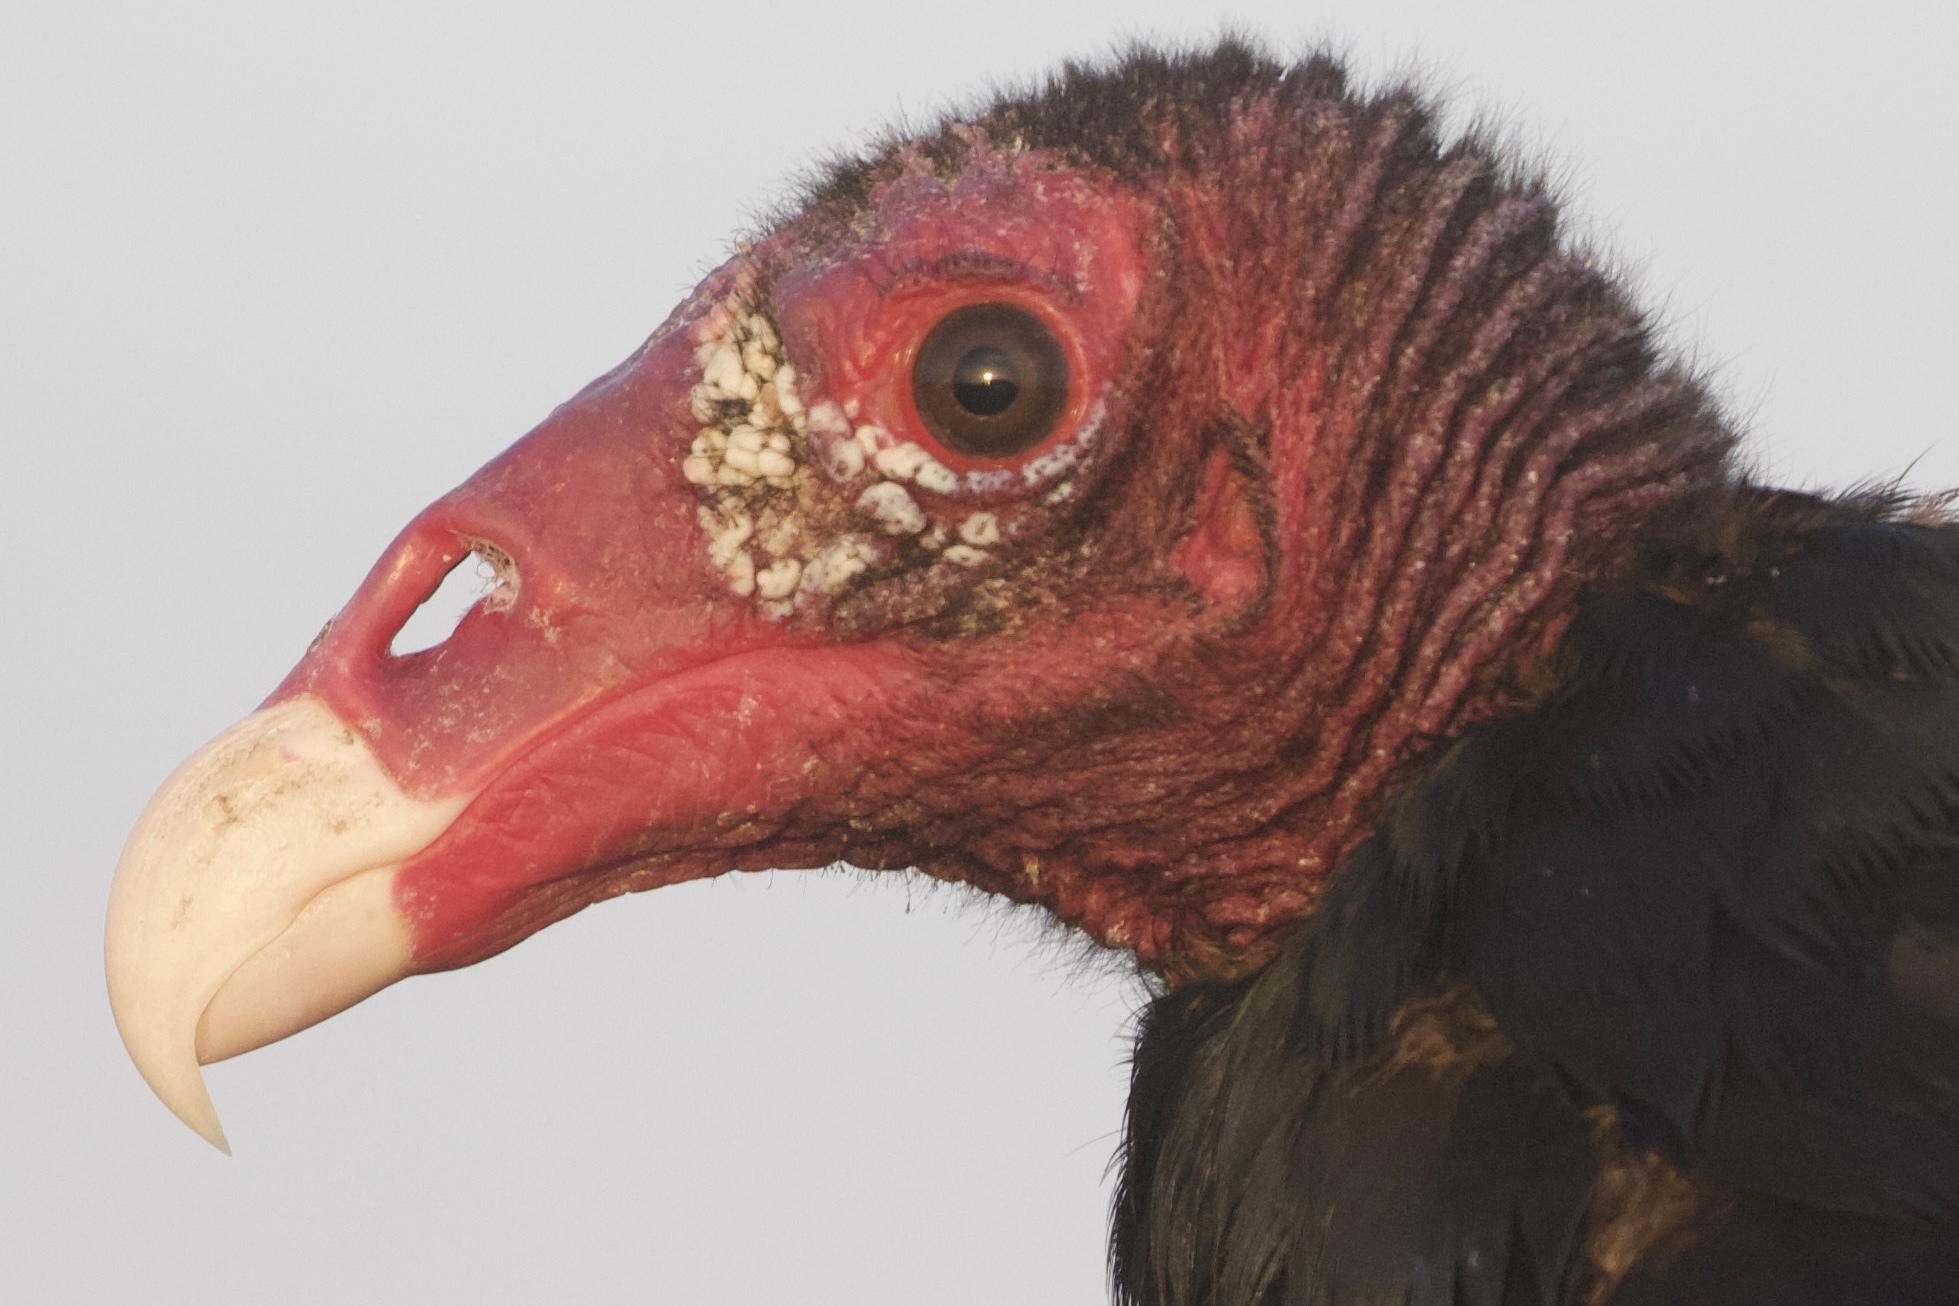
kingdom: Animalia
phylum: Chordata
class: Aves
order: Accipitriformes
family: Cathartidae
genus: Cathartes
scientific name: Cathartes aura
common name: Turkey vulture
